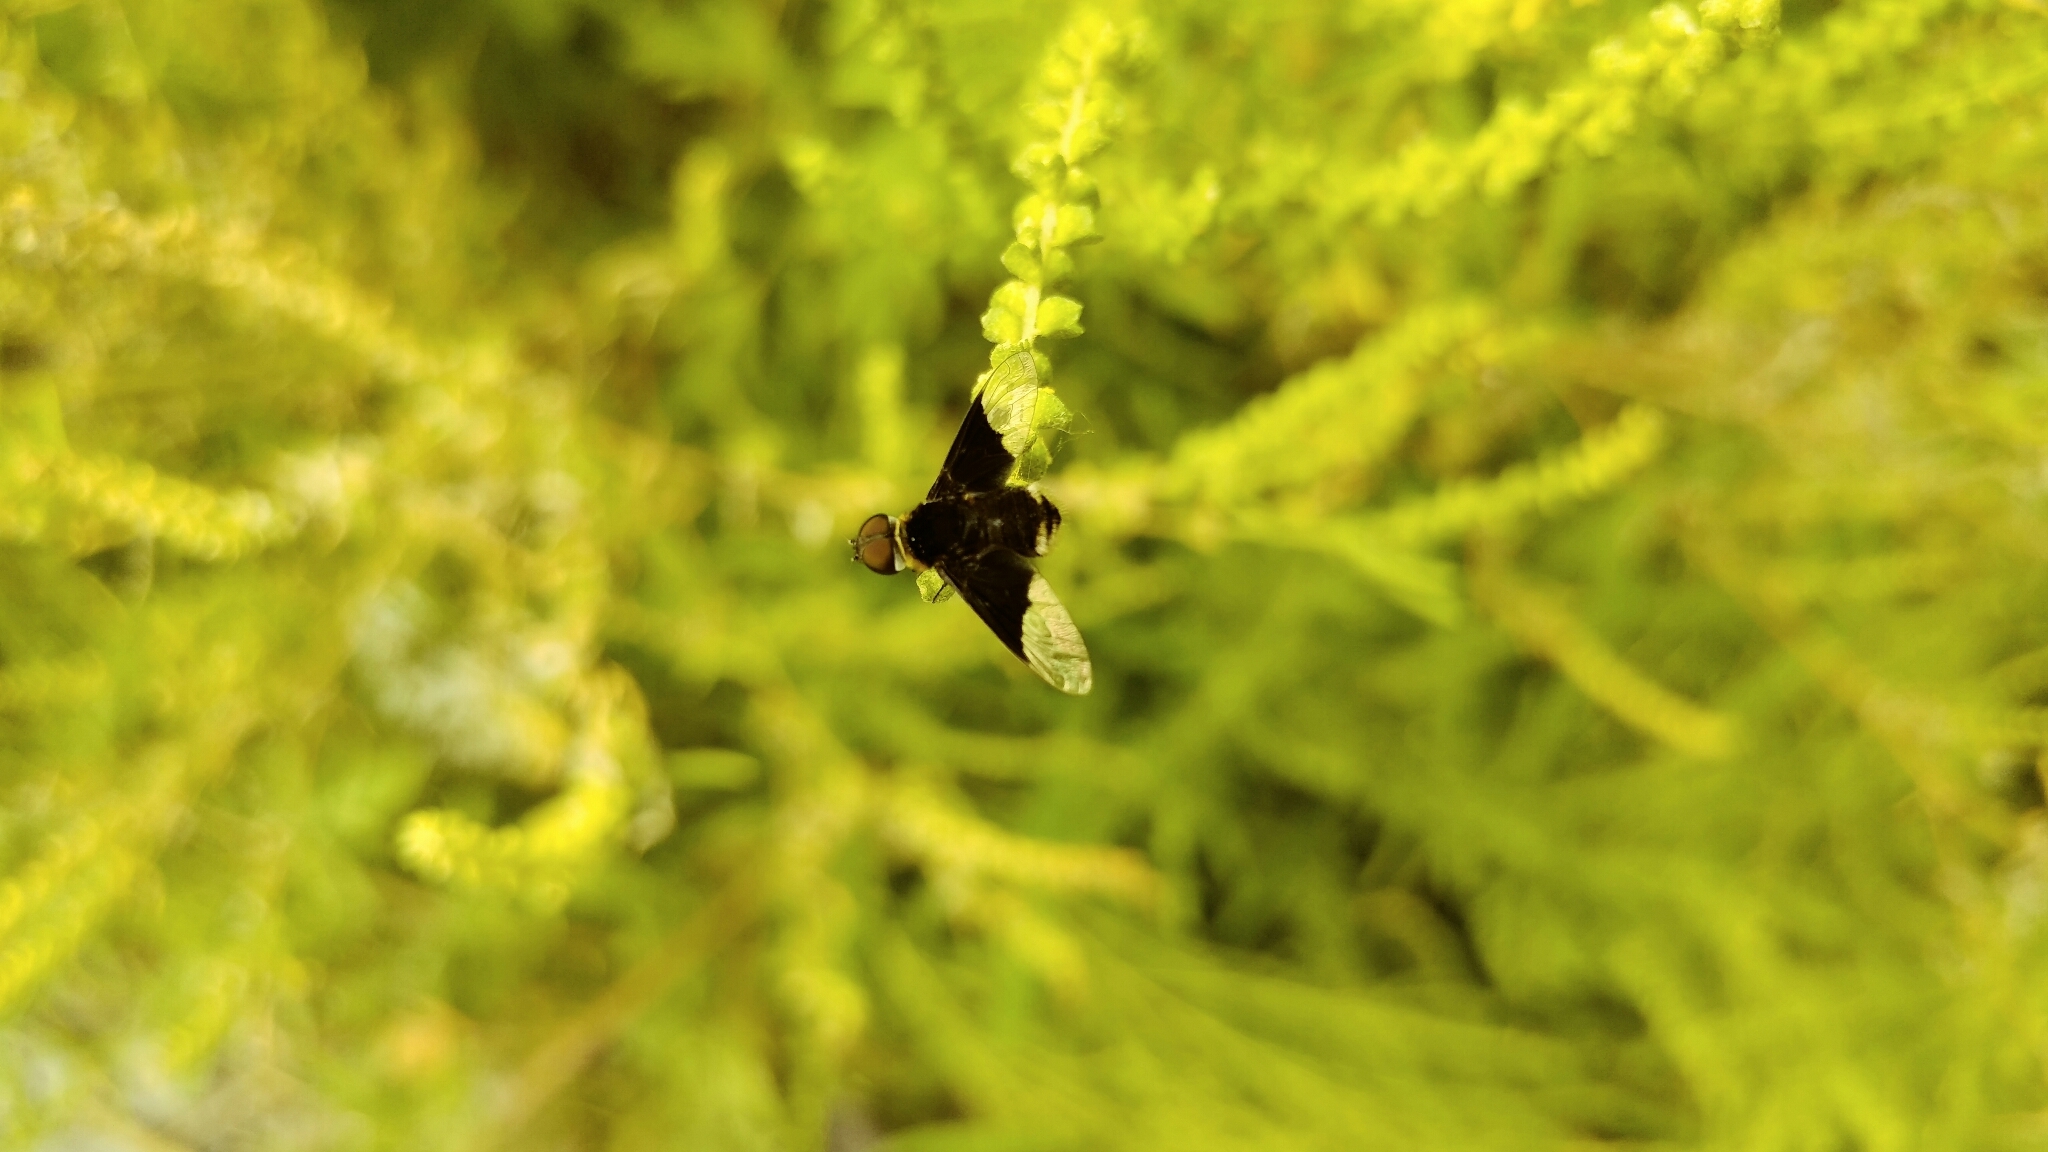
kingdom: Animalia
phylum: Arthropoda
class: Insecta
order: Diptera
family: Bombyliidae
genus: Ins
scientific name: Ins celeris
